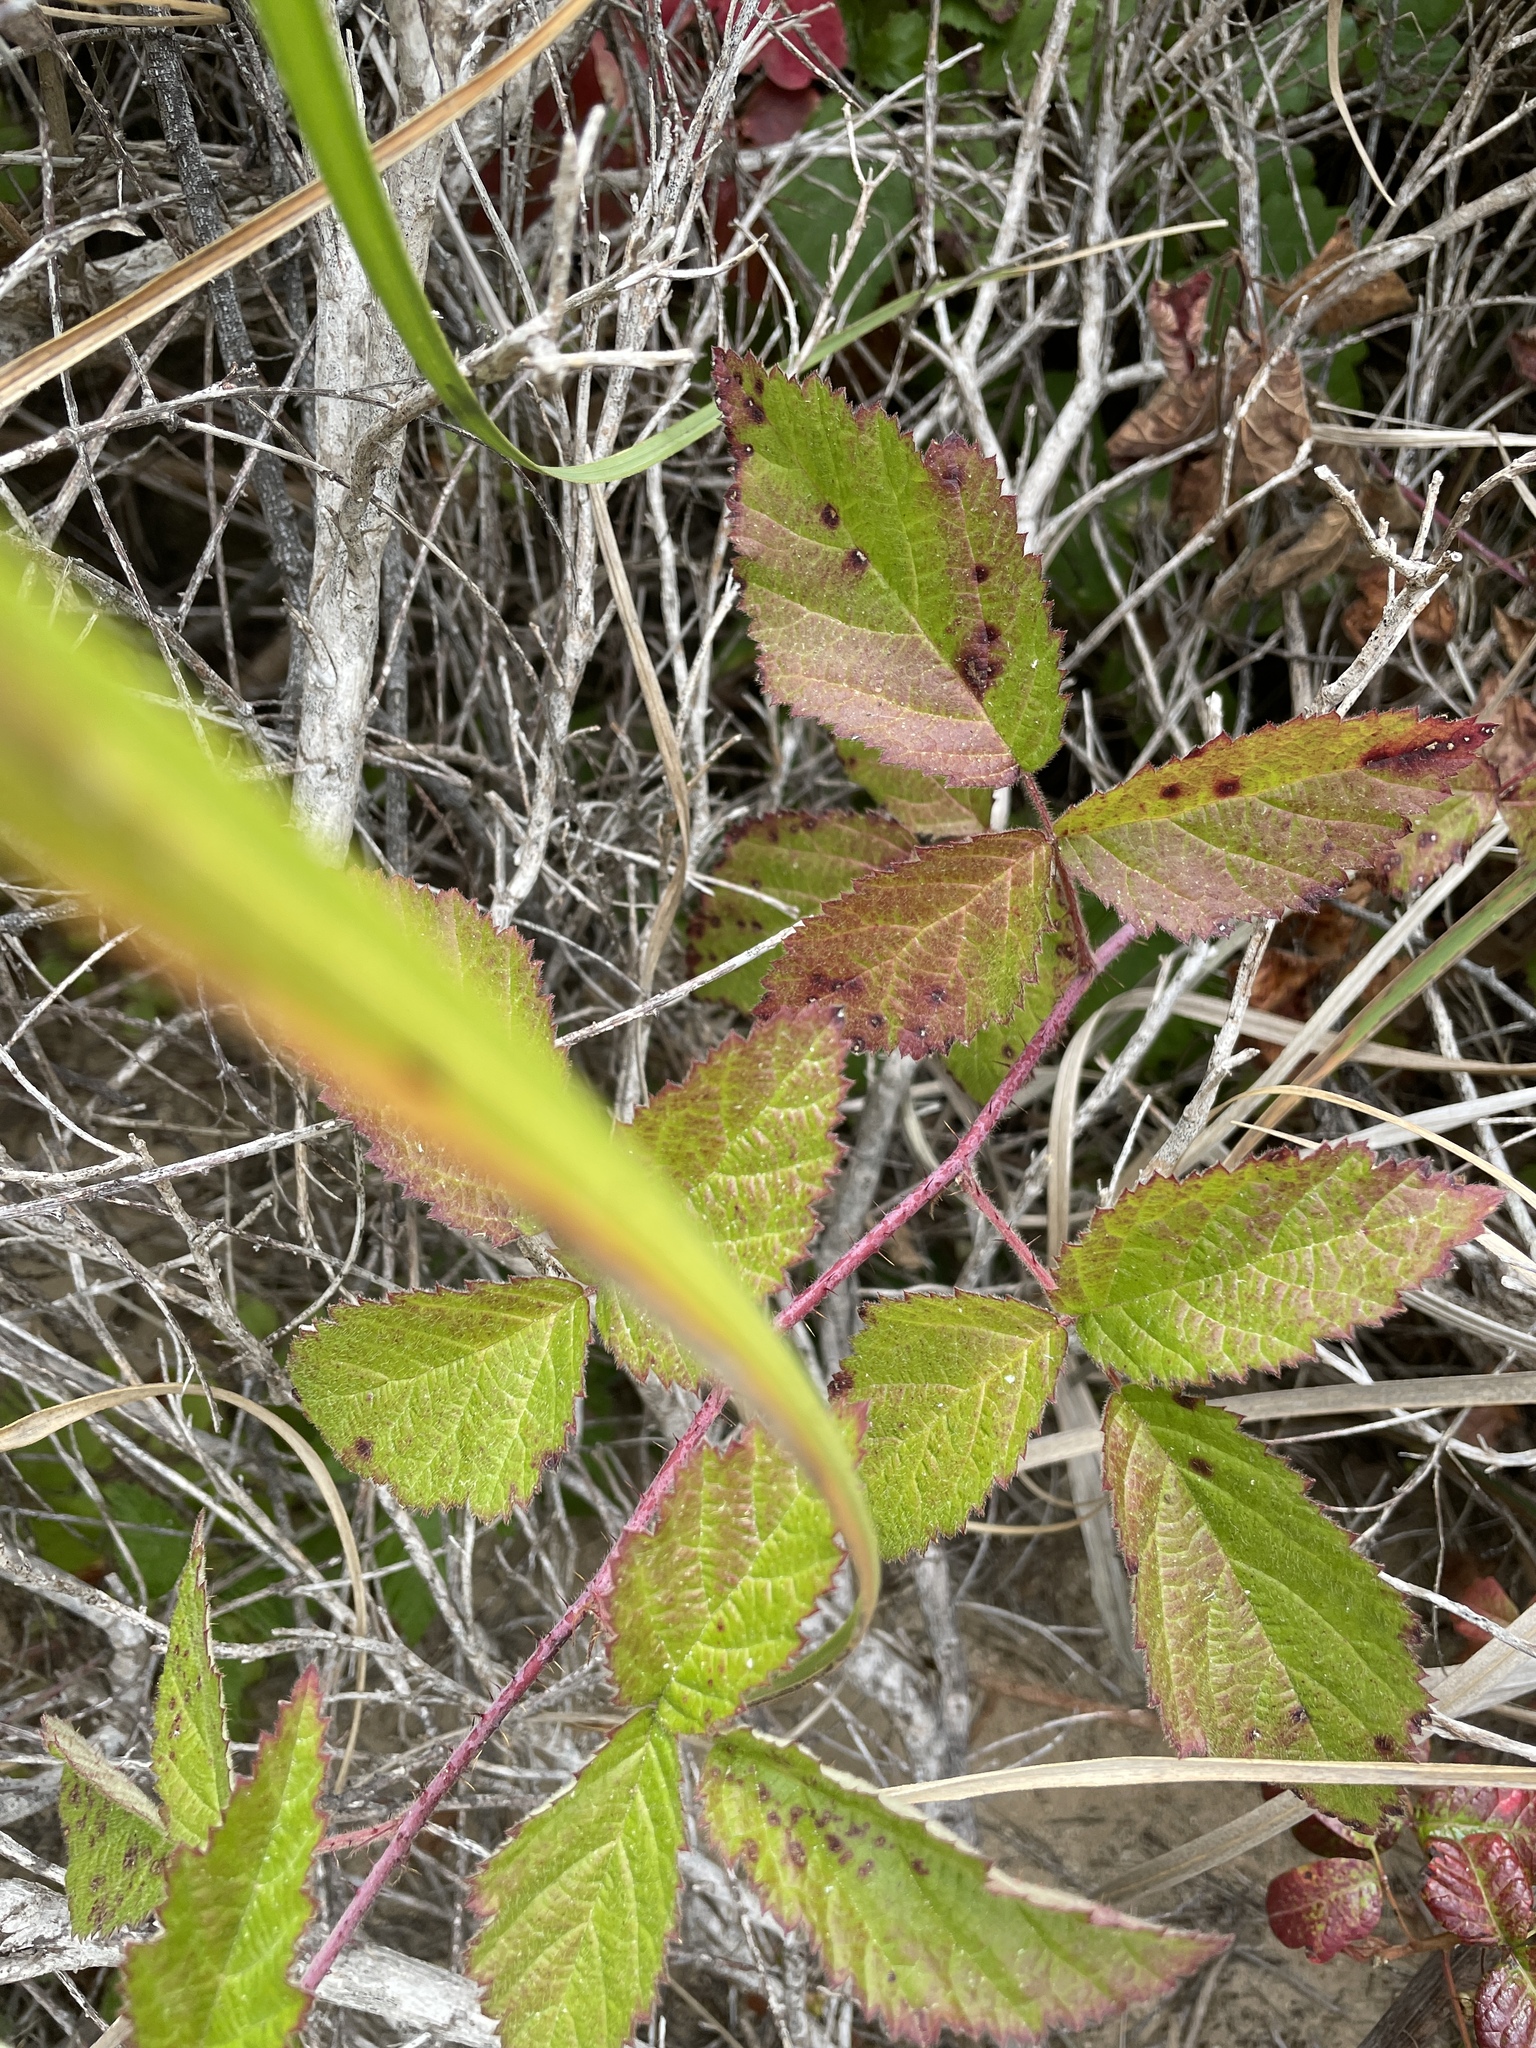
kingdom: Plantae
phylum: Tracheophyta
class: Magnoliopsida
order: Rosales
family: Rosaceae
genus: Rubus
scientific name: Rubus ursinus
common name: Pacific blackberry
